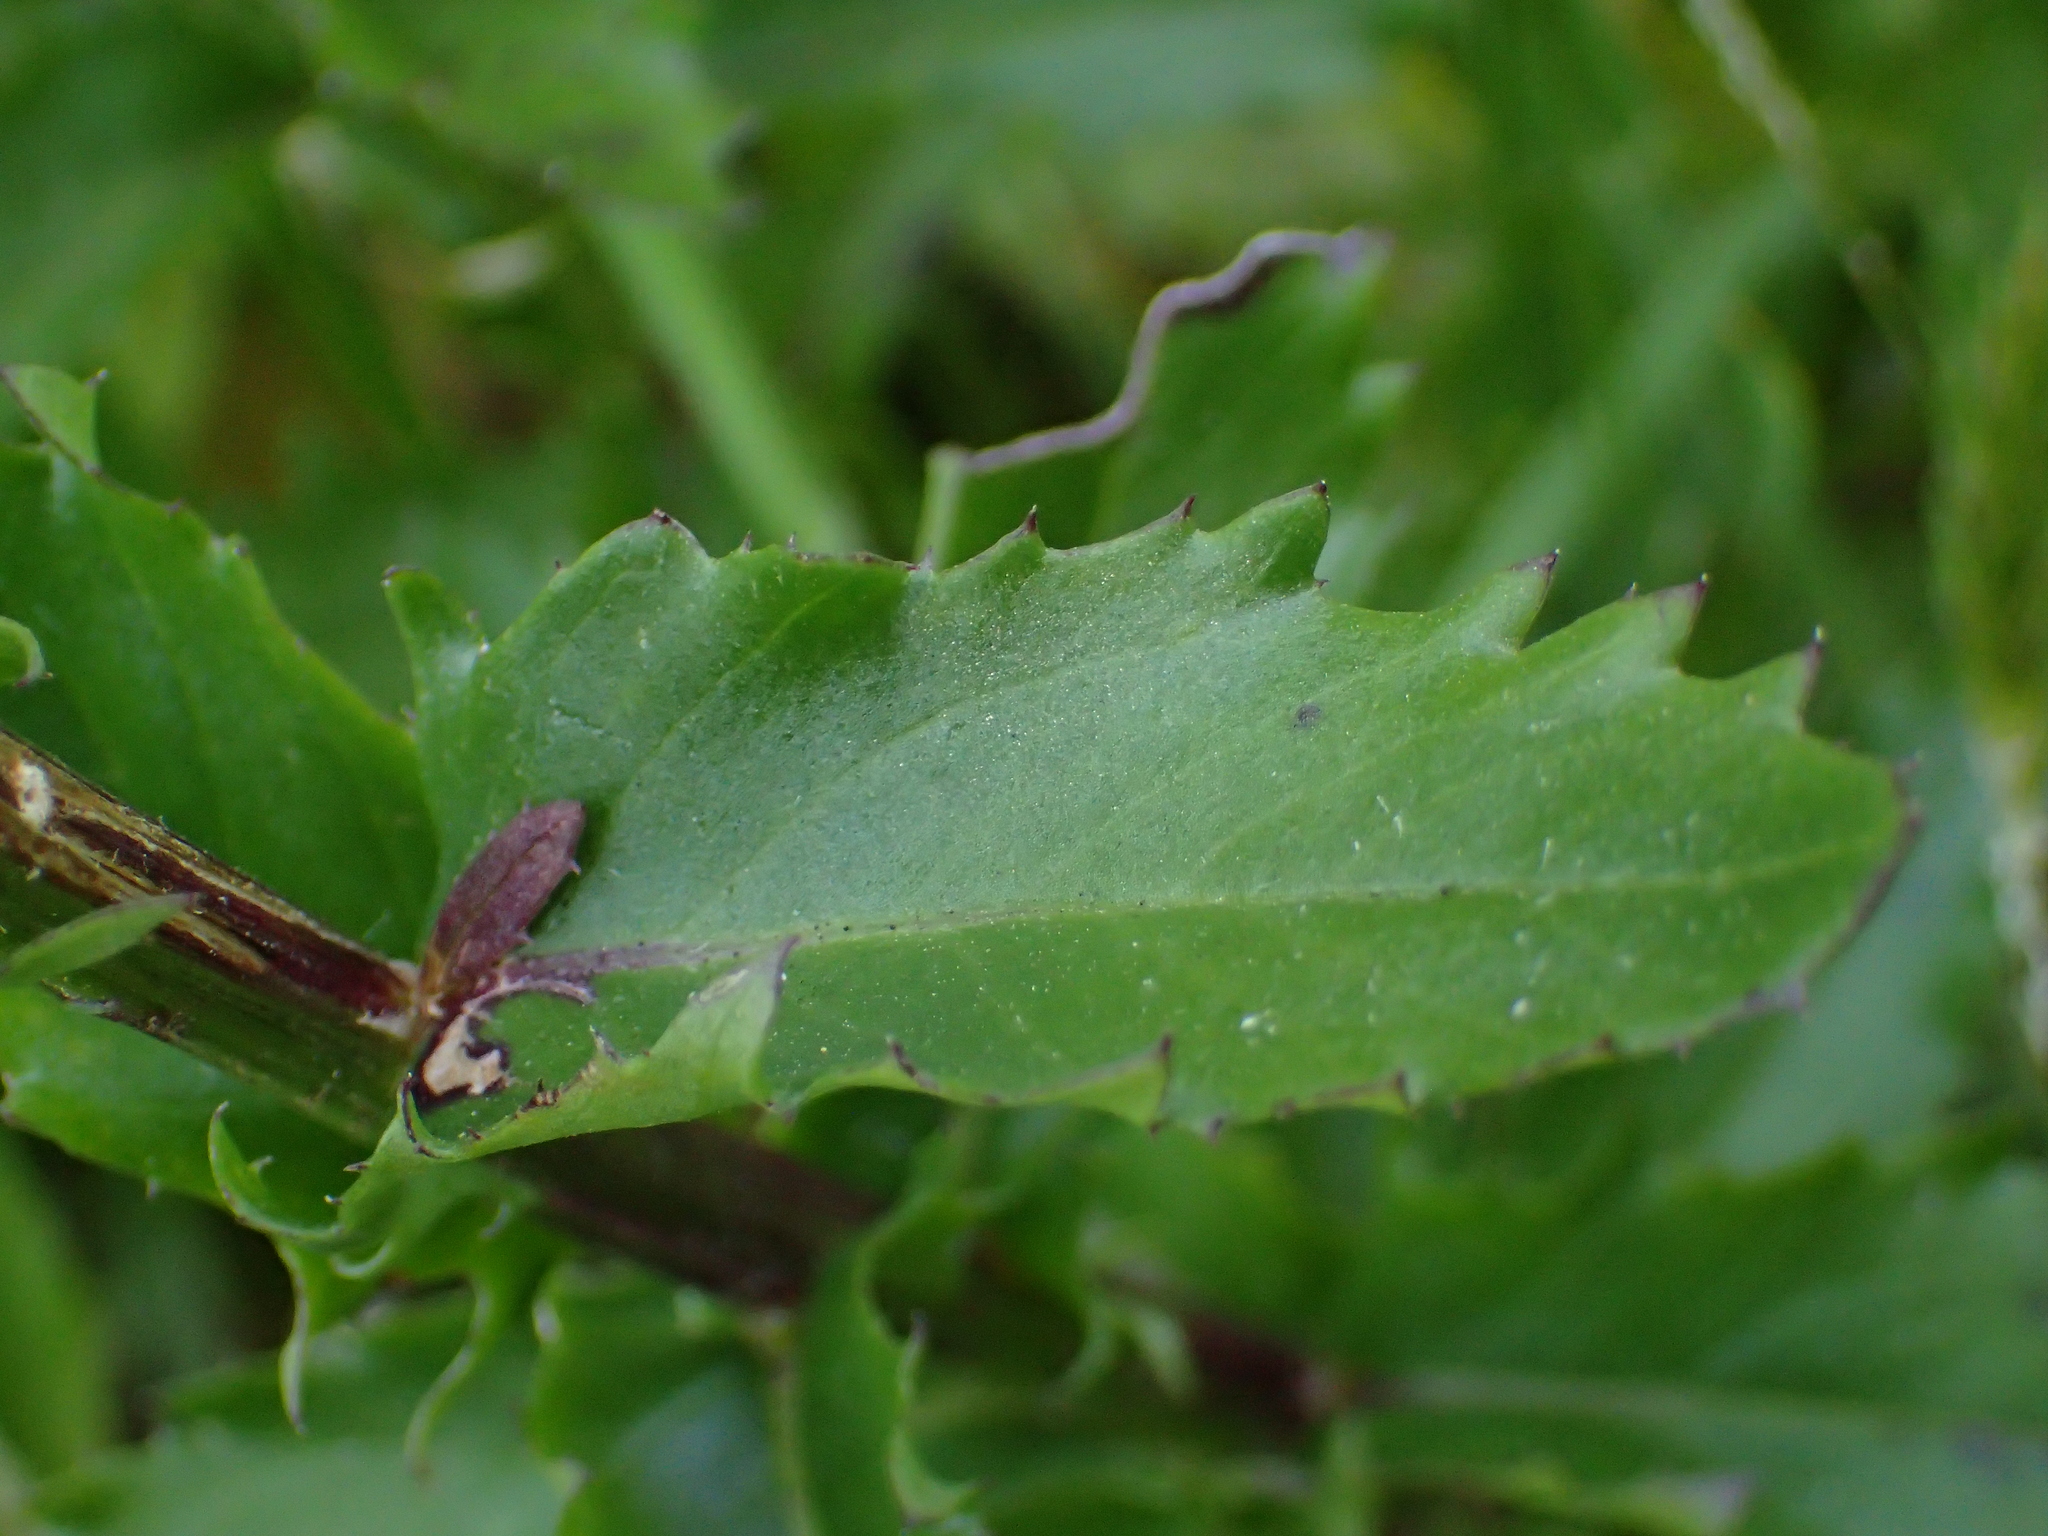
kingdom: Plantae
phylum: Tracheophyta
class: Magnoliopsida
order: Asterales
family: Asteraceae
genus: Senecio
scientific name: Senecio glastifolius
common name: Woad-leaved ragwort
